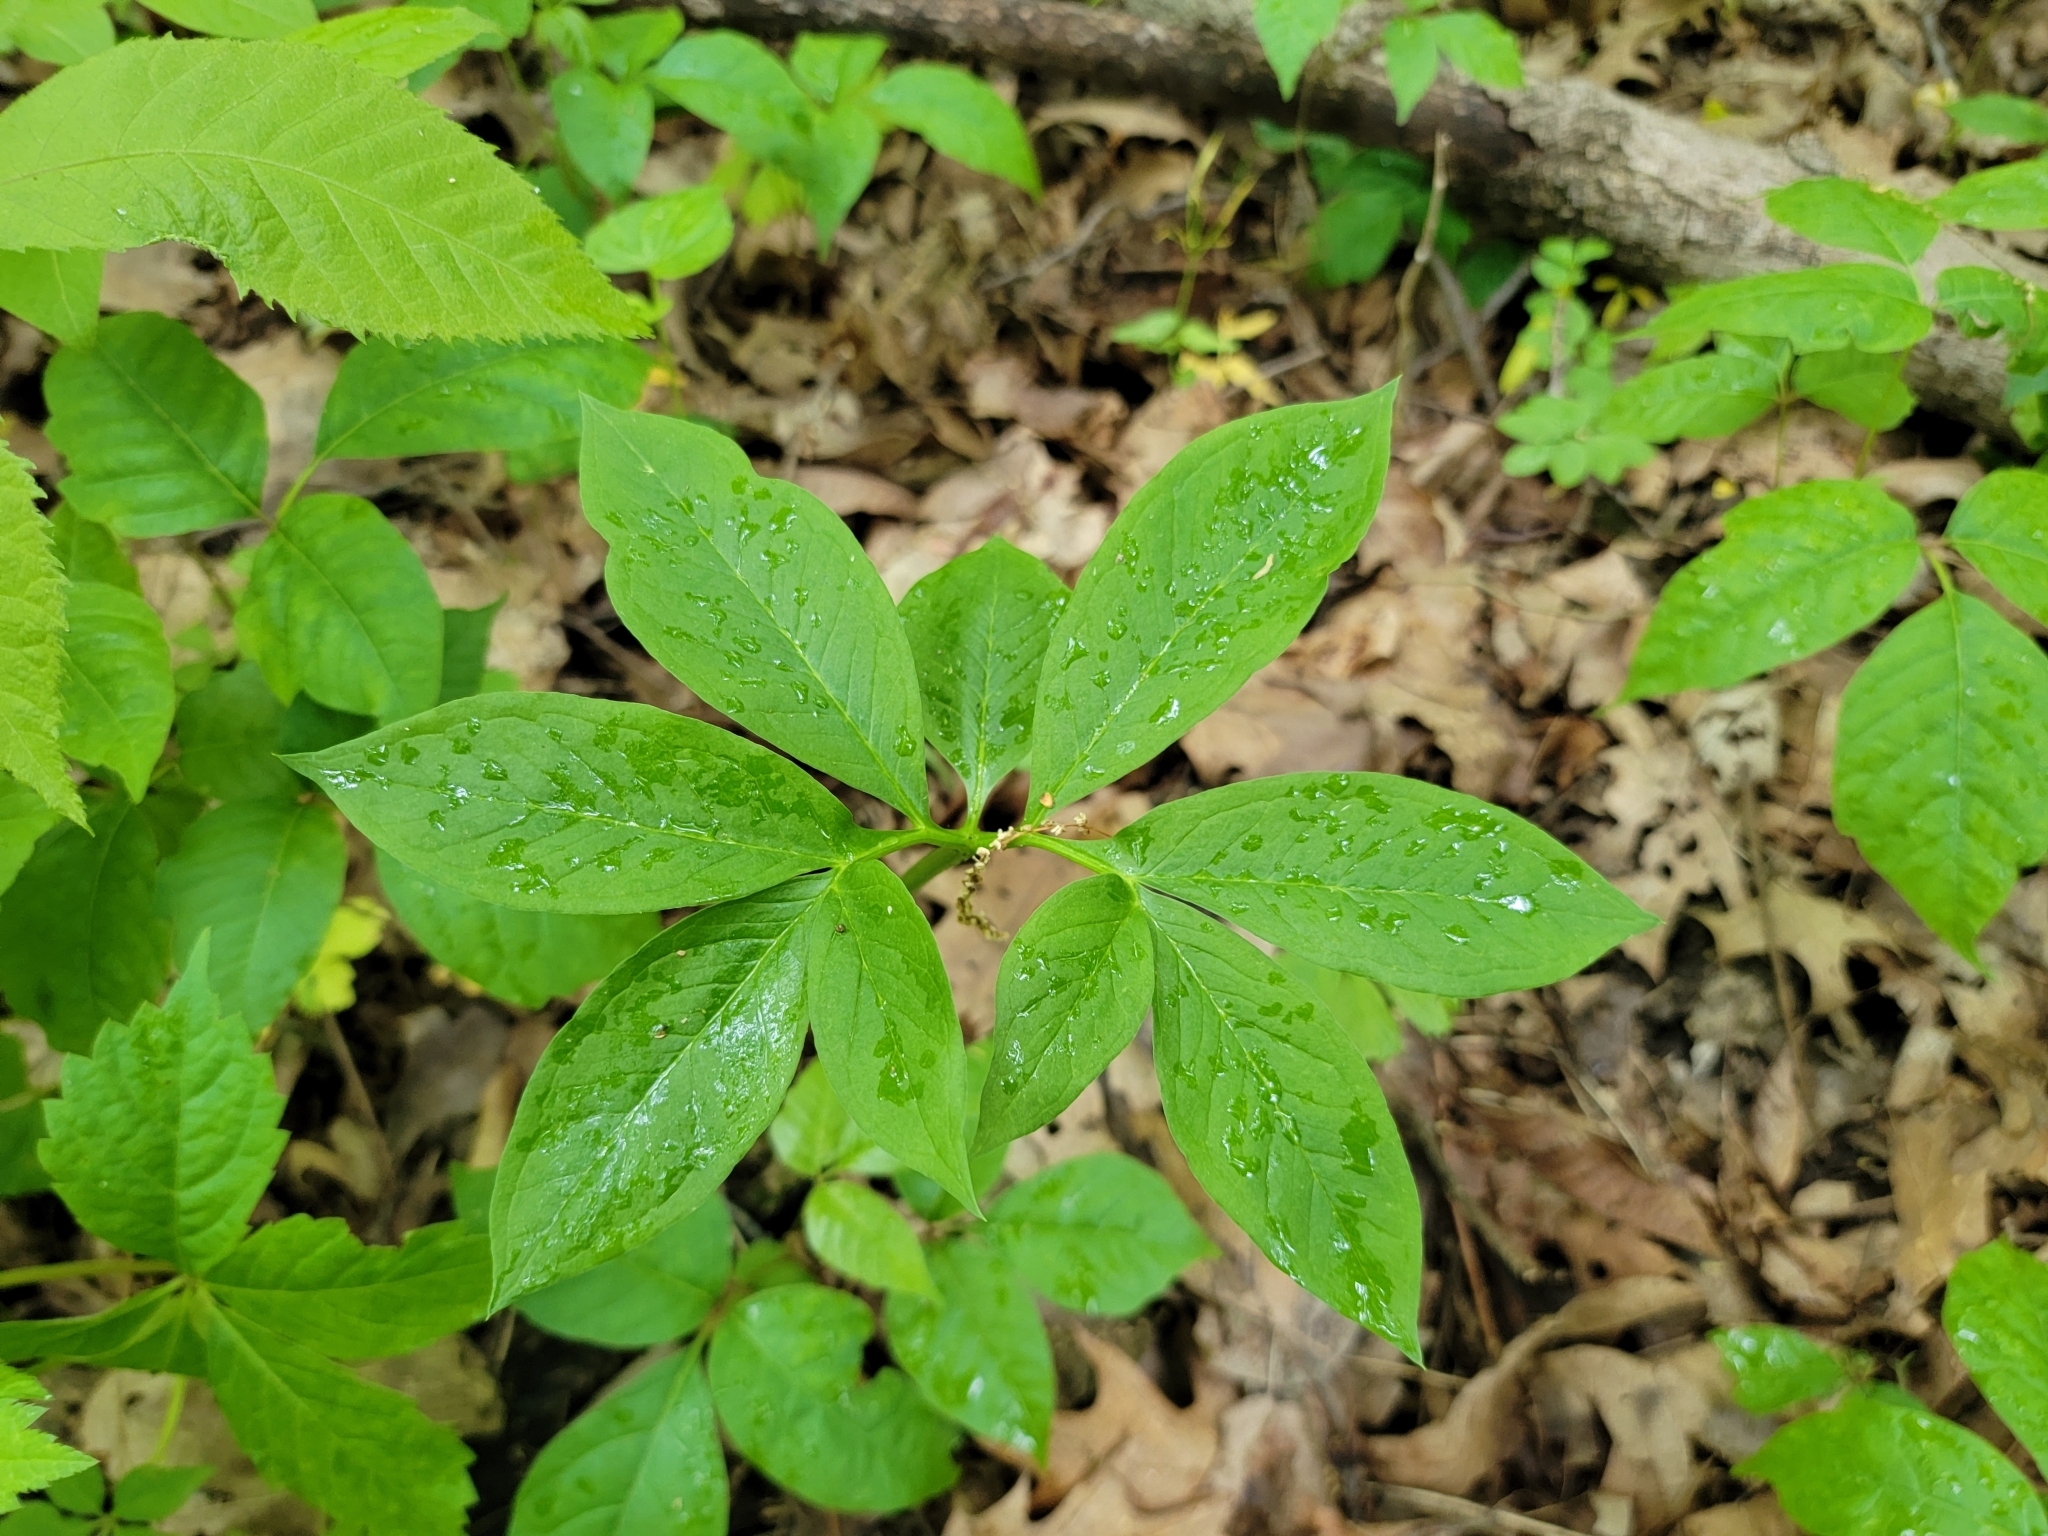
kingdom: Plantae
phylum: Tracheophyta
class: Liliopsida
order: Alismatales
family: Araceae
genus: Arisaema
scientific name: Arisaema dracontium
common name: Dragon-arum
